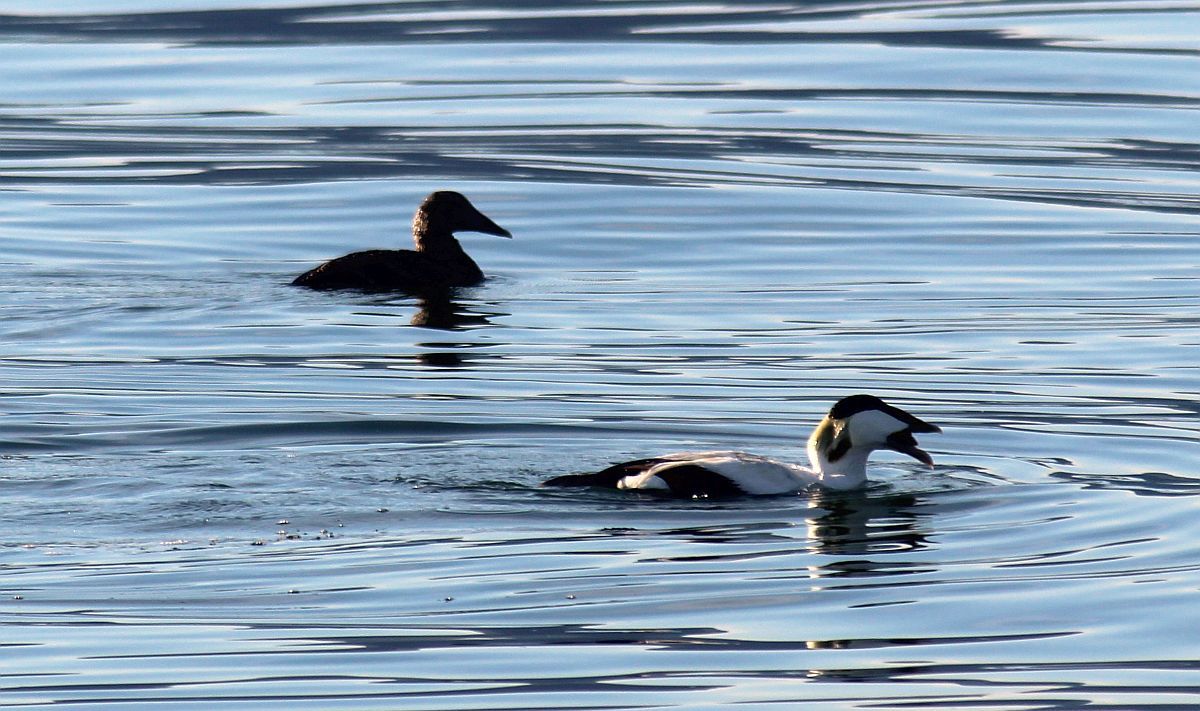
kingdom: Animalia
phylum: Chordata
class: Aves
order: Anseriformes
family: Anatidae
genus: Somateria
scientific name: Somateria mollissima
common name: Common eider
